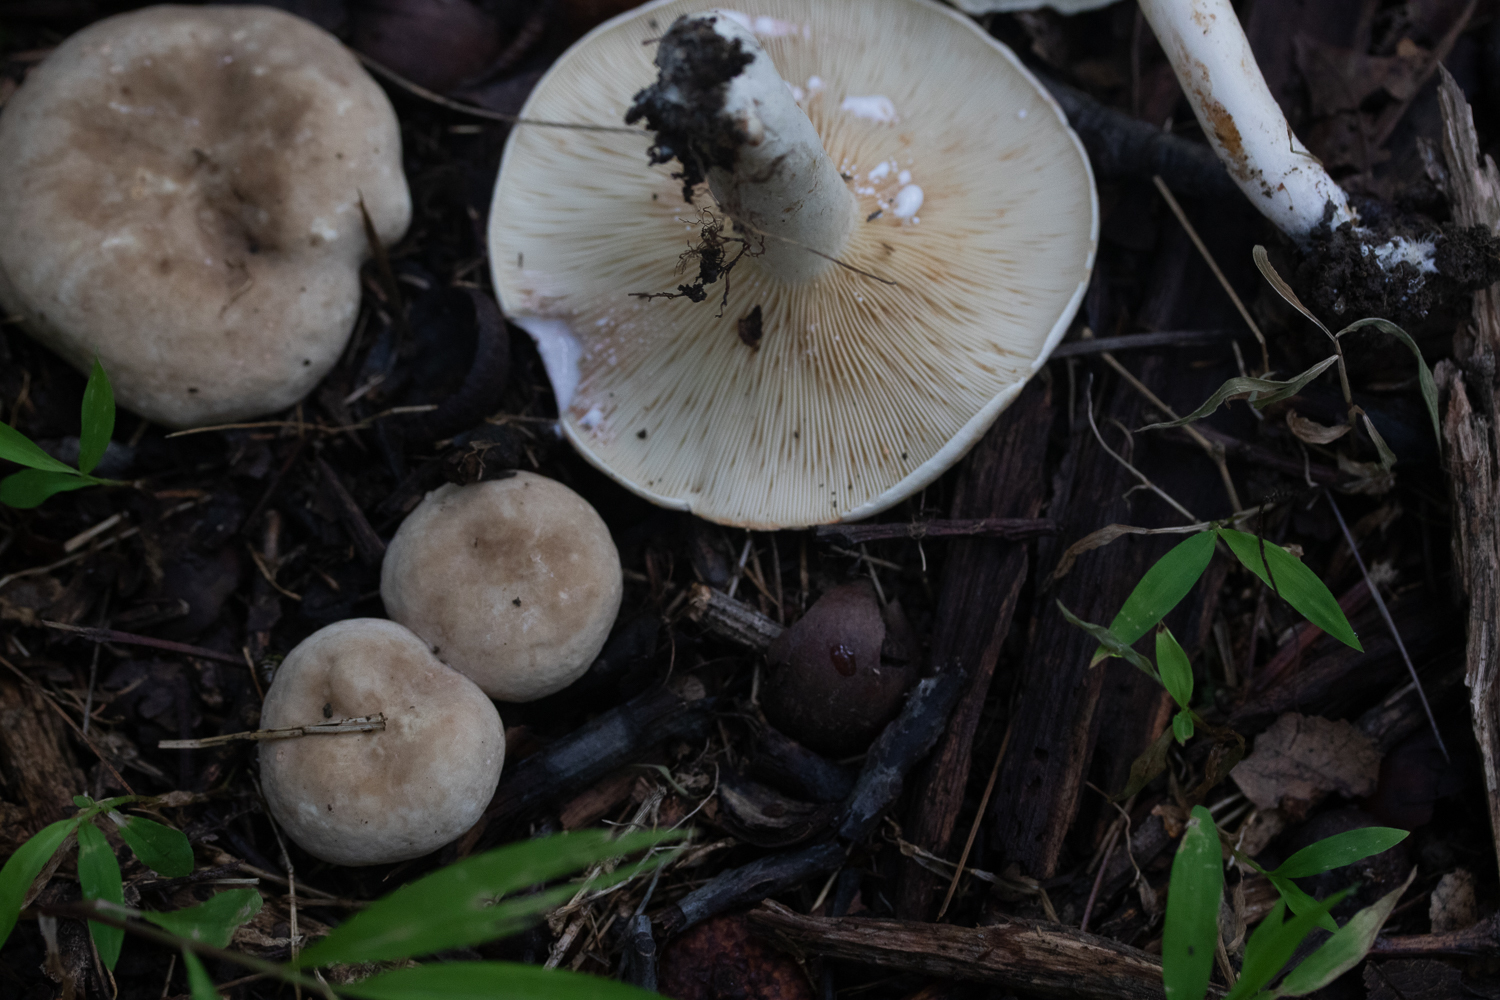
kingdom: Fungi
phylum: Basidiomycota
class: Agaricomycetes
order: Russulales
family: Russulaceae
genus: Lactarius
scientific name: Lactarius subvernalis
